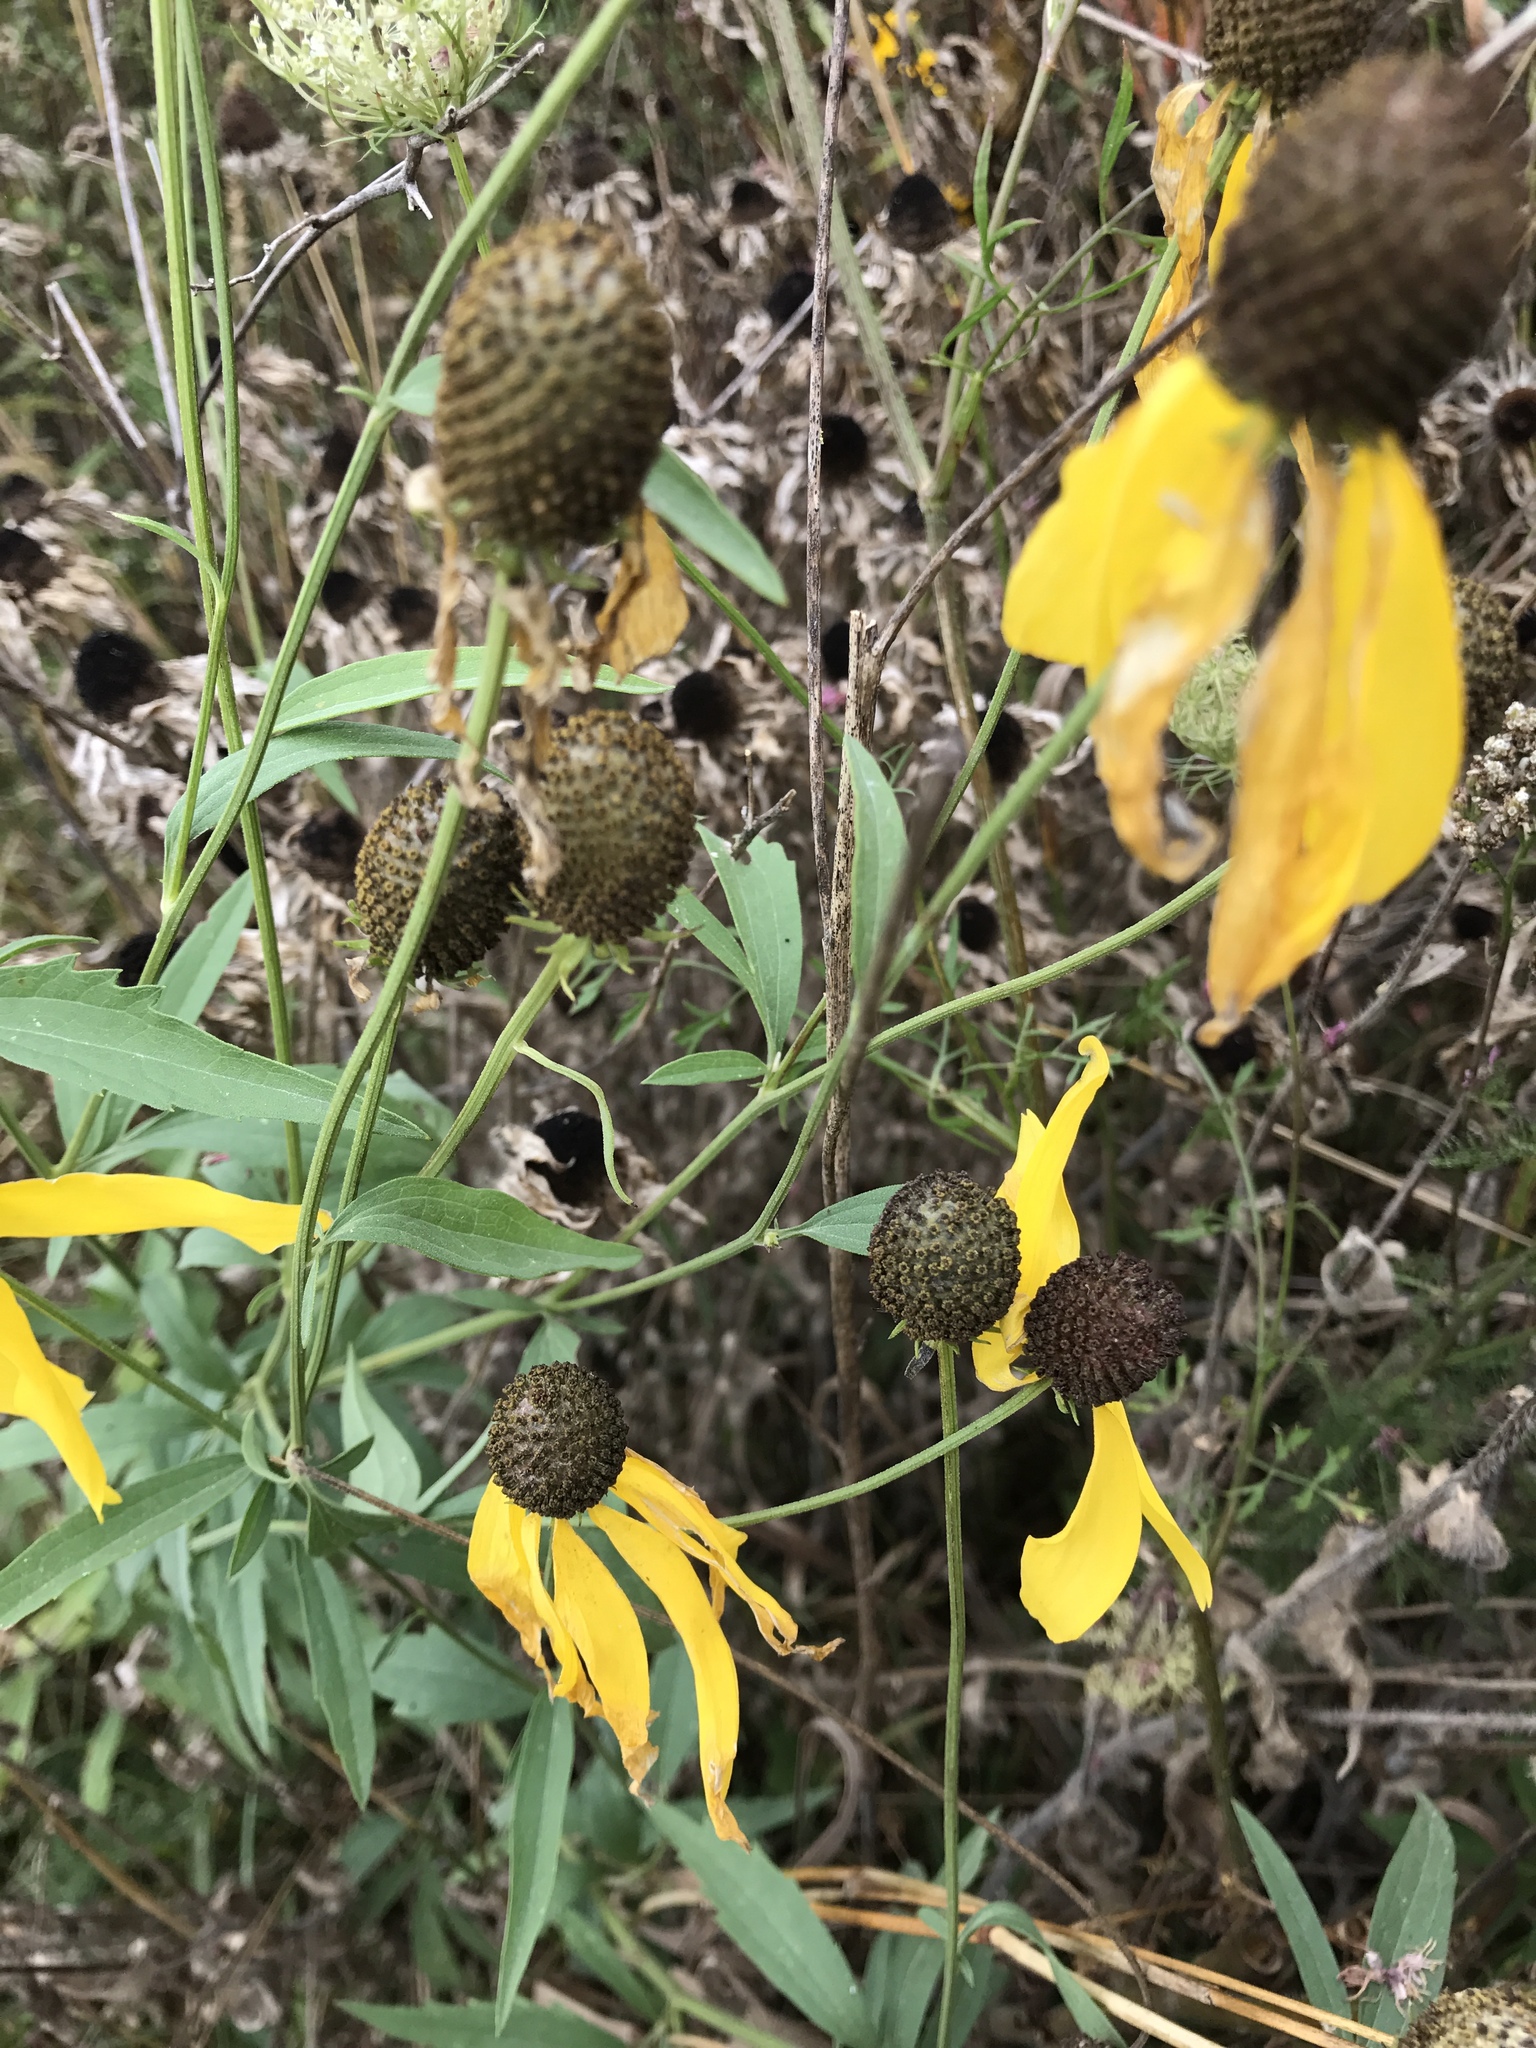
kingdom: Plantae
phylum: Tracheophyta
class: Magnoliopsida
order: Asterales
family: Asteraceae
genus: Ratibida
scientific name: Ratibida pinnata
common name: Drooping prairie-coneflower
